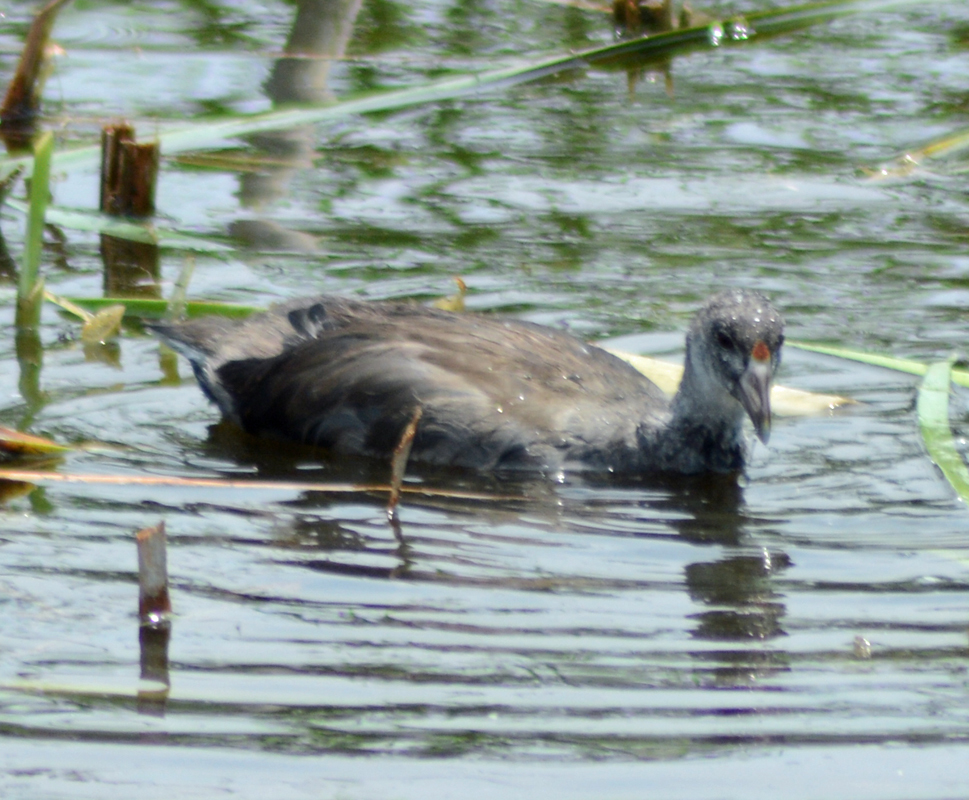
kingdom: Animalia
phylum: Chordata
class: Aves
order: Gruiformes
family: Rallidae
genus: Fulica
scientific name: Fulica americana
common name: American coot
